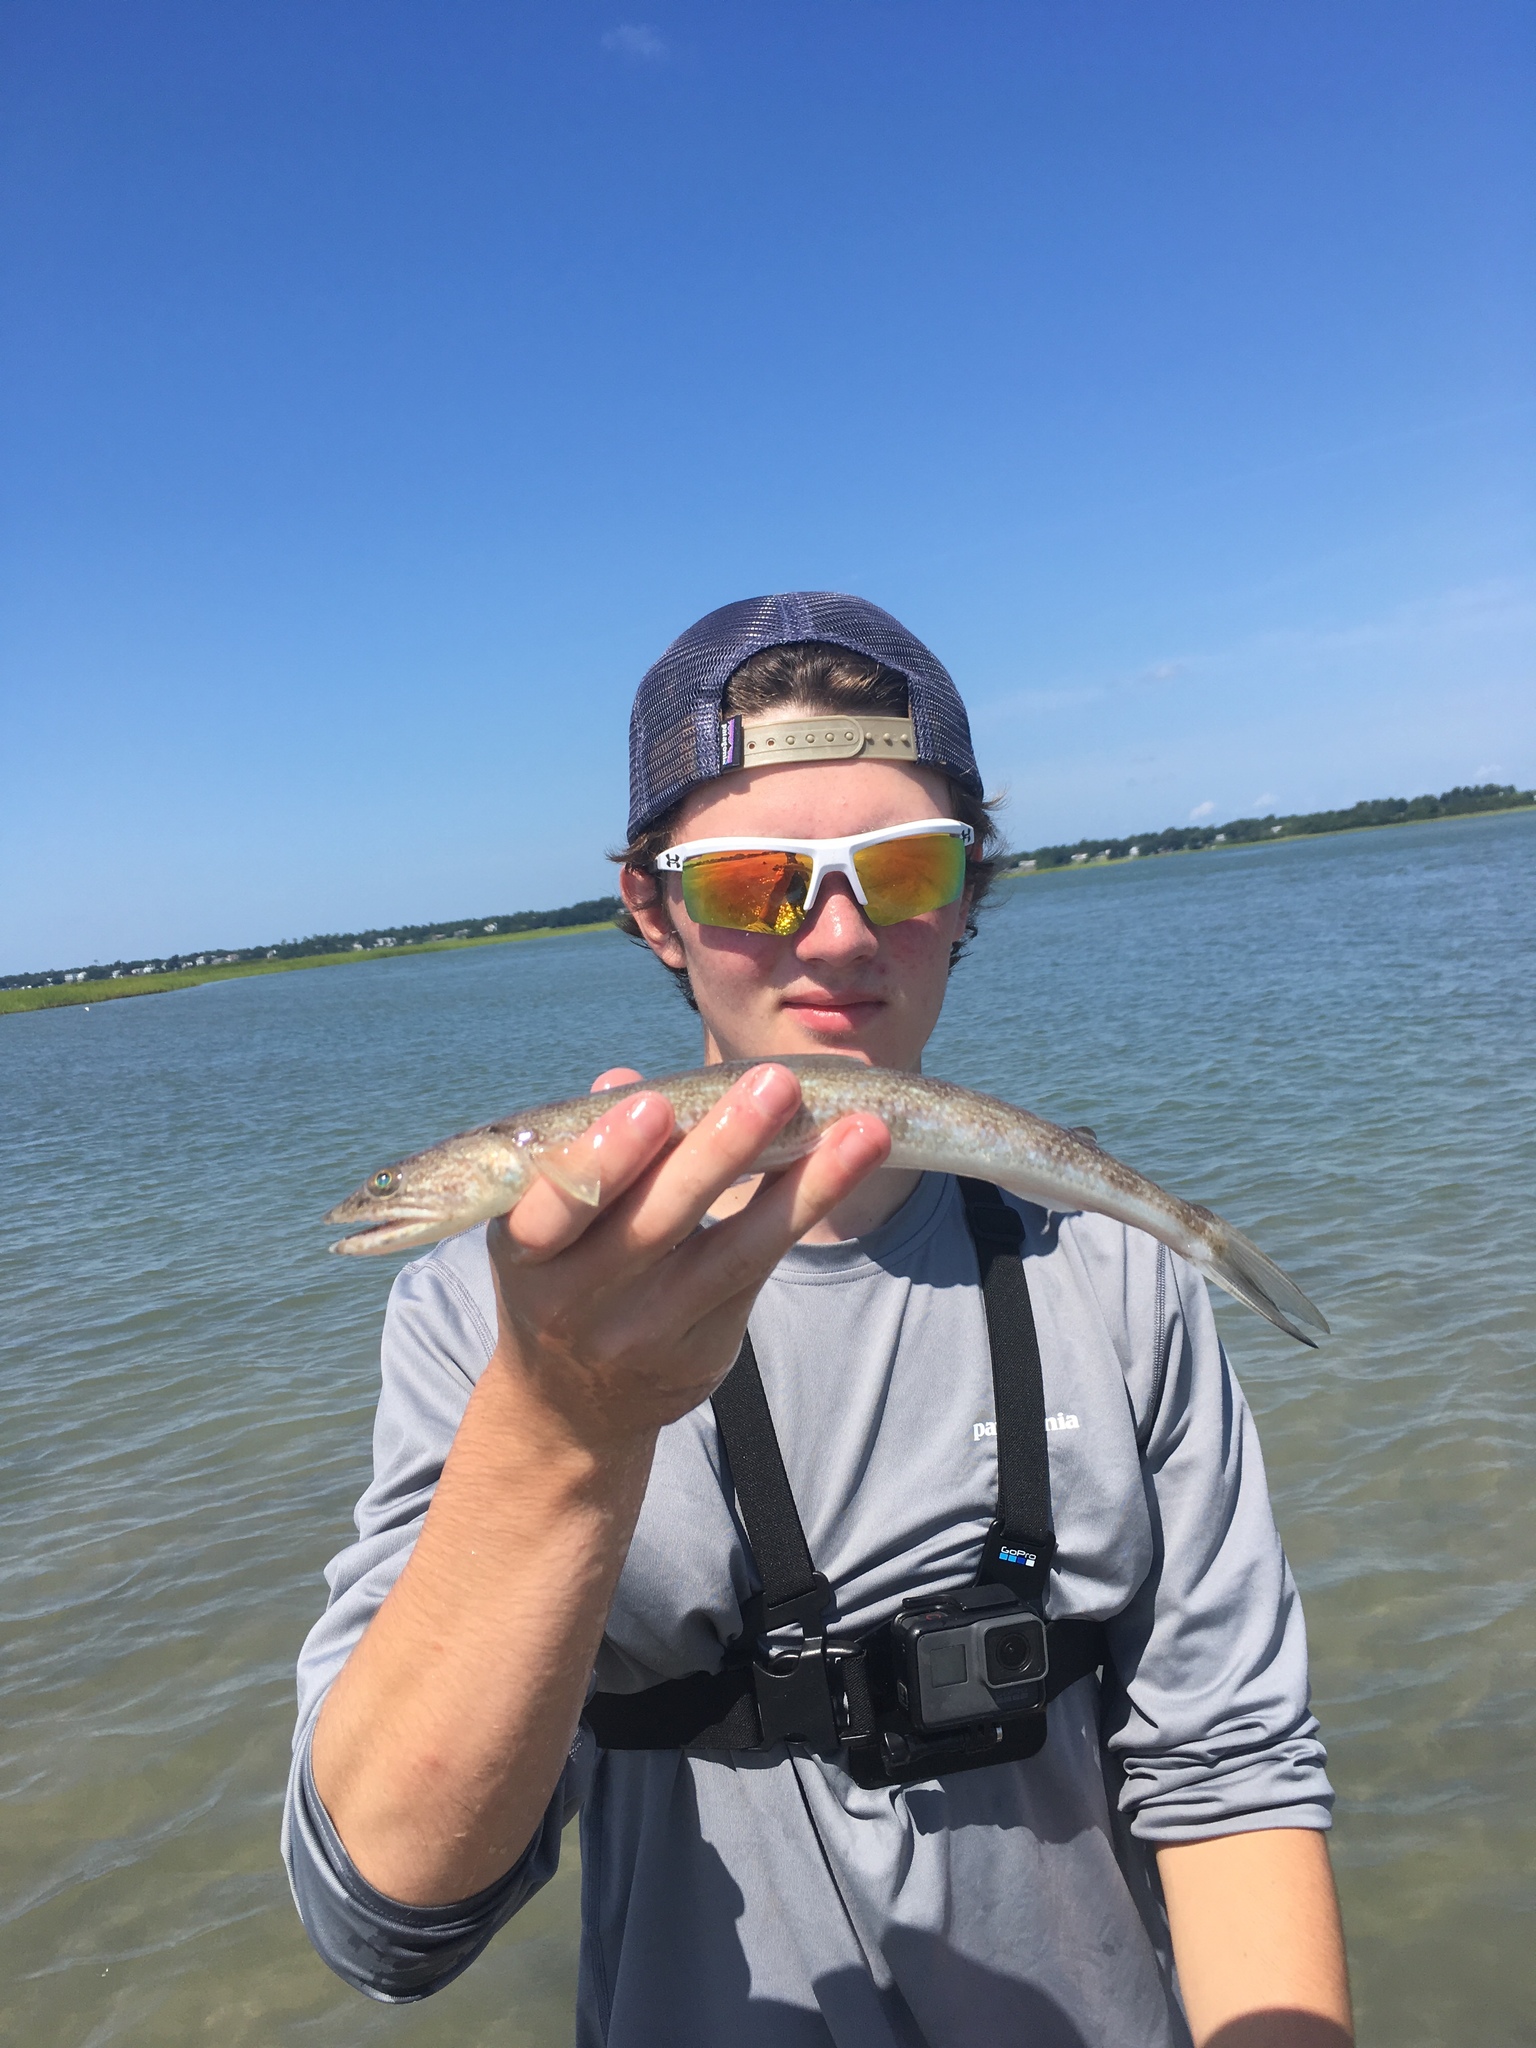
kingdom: Animalia
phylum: Chordata
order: Aulopiformes
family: Synodontidae
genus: Synodus
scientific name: Synodus foetens
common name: Inshore lizardfish
